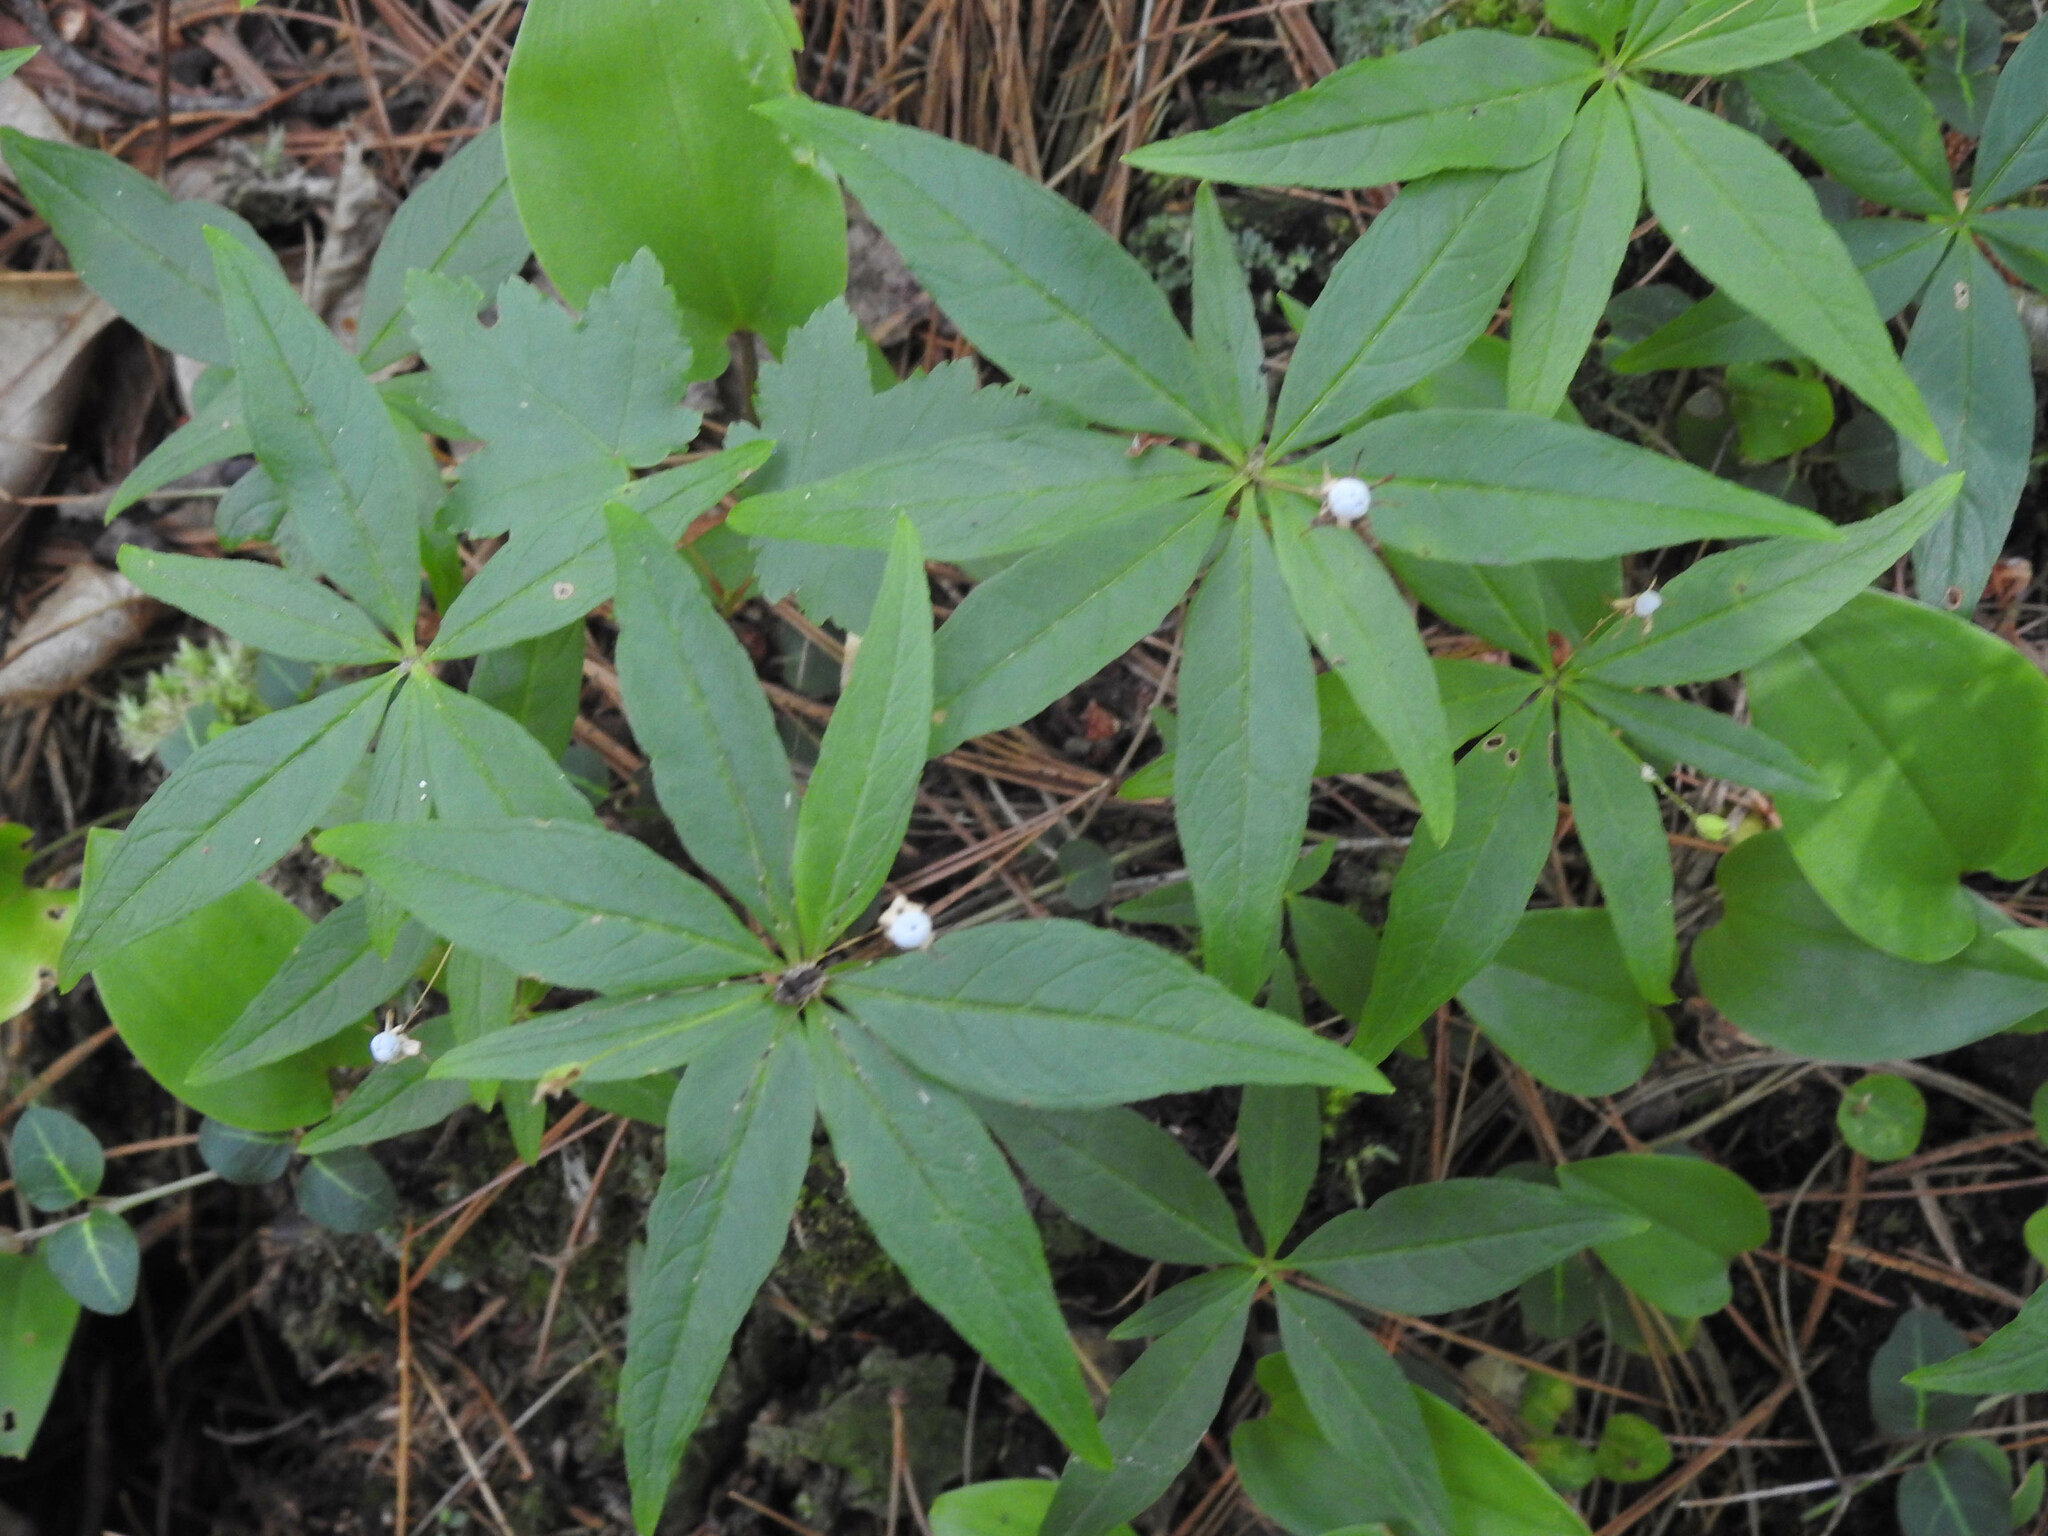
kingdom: Plantae
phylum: Tracheophyta
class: Magnoliopsida
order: Ericales
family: Primulaceae
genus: Lysimachia
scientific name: Lysimachia borealis
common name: American starflower
